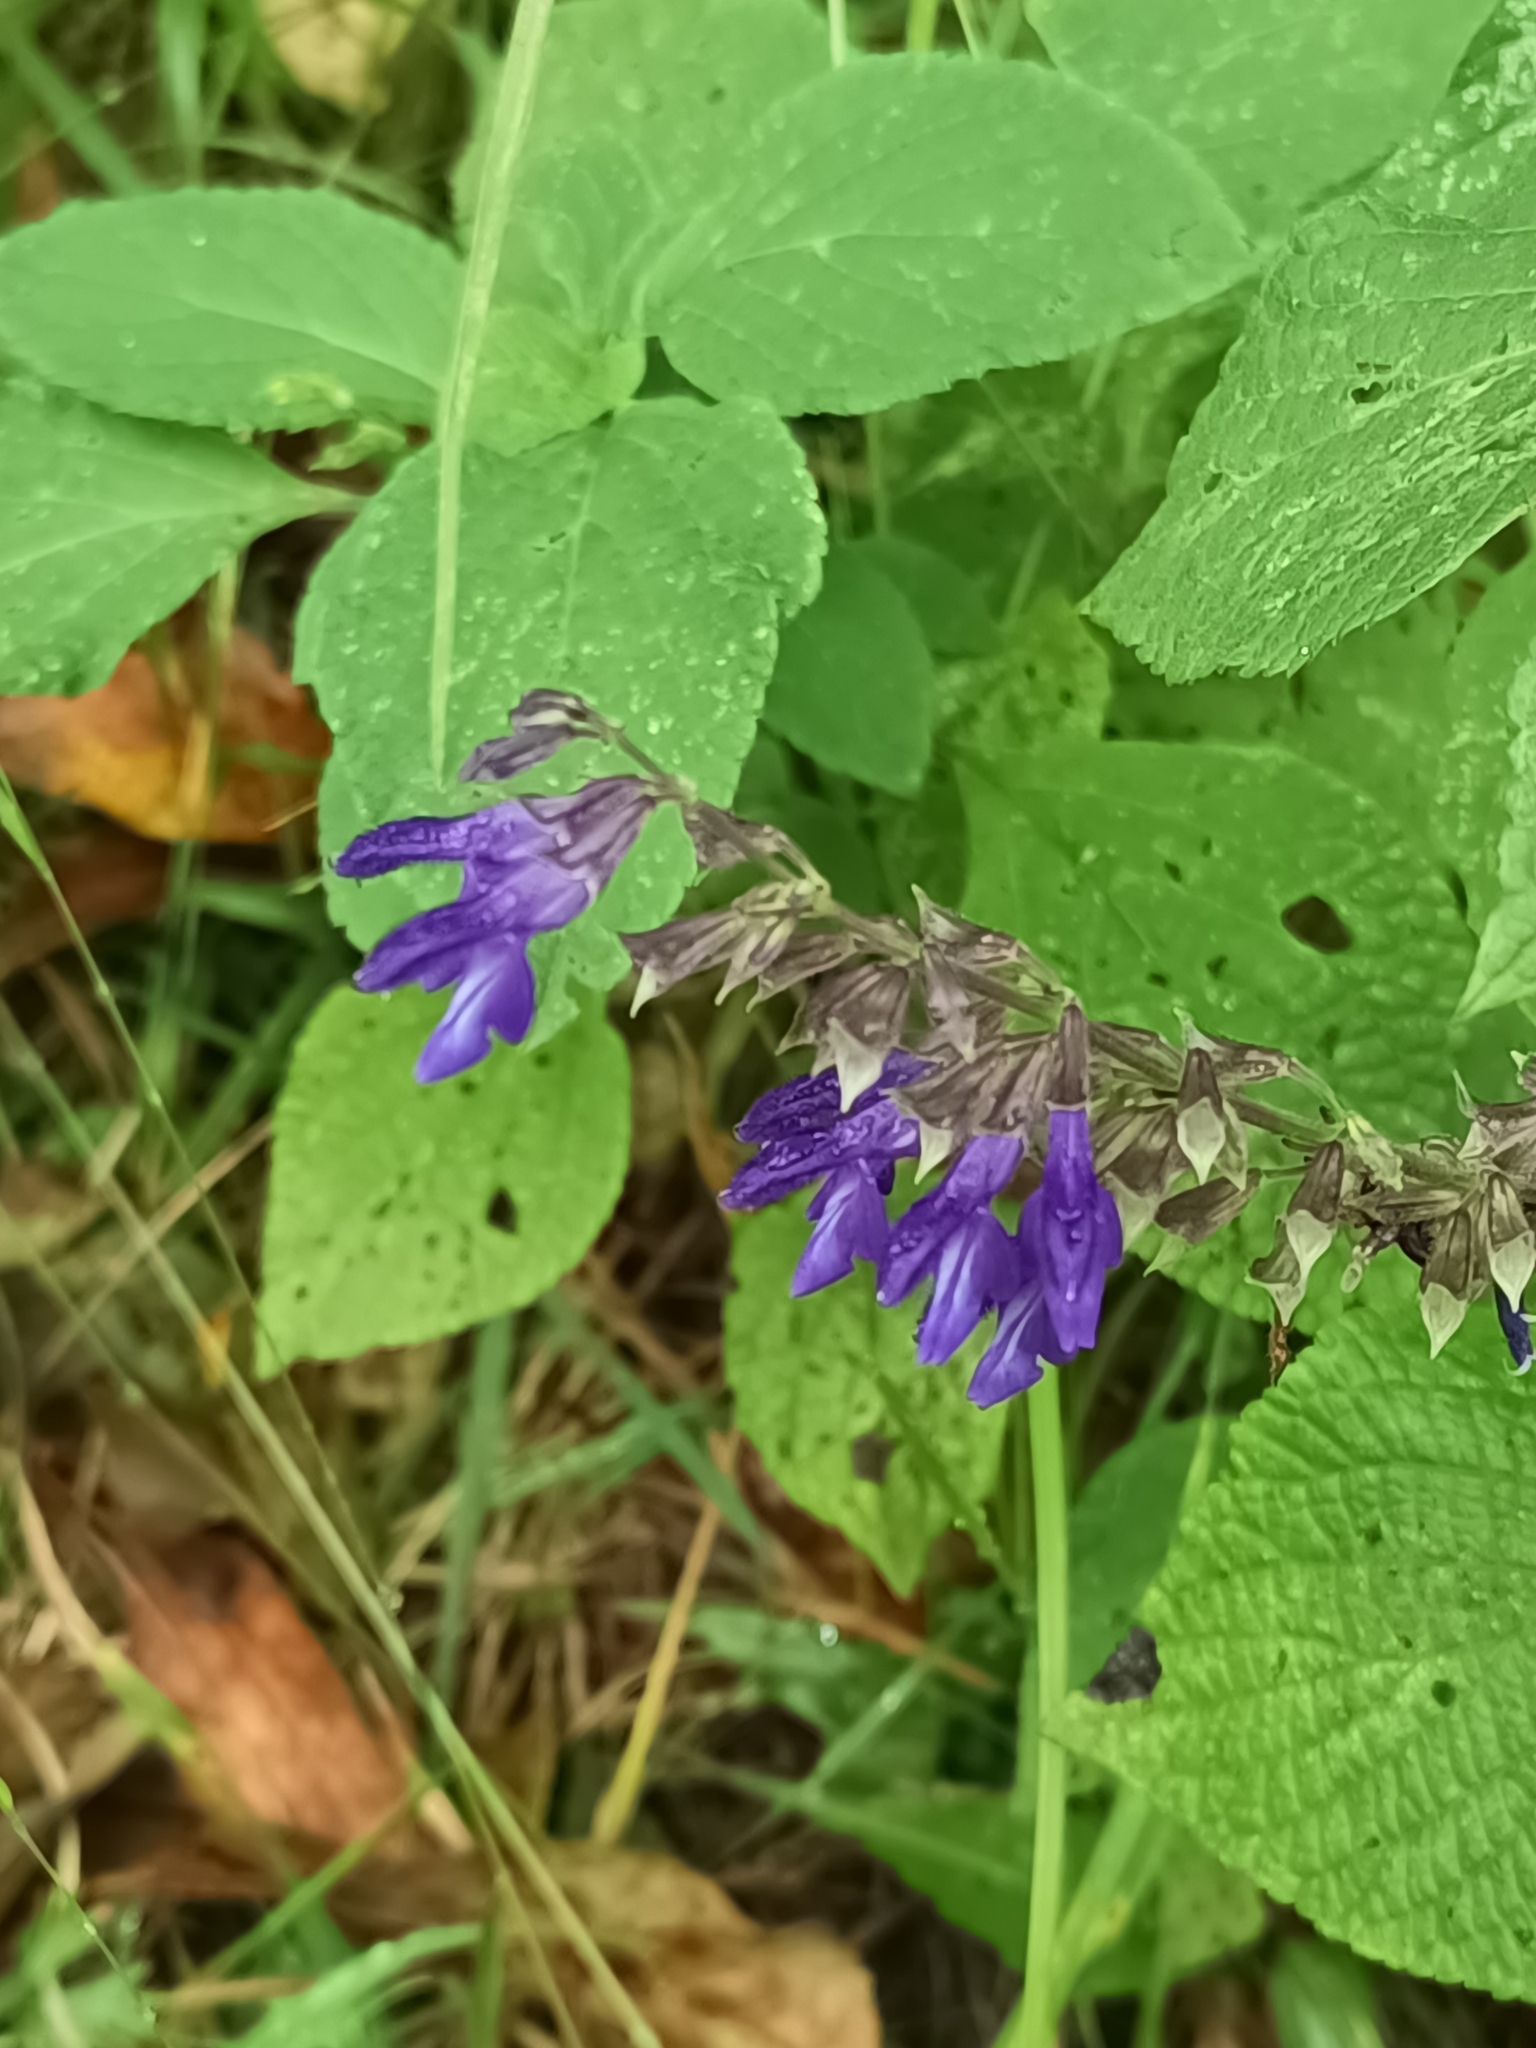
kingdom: Plantae
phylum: Tracheophyta
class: Magnoliopsida
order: Lamiales
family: Lamiaceae
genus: Salvia
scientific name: Salvia mexicana
